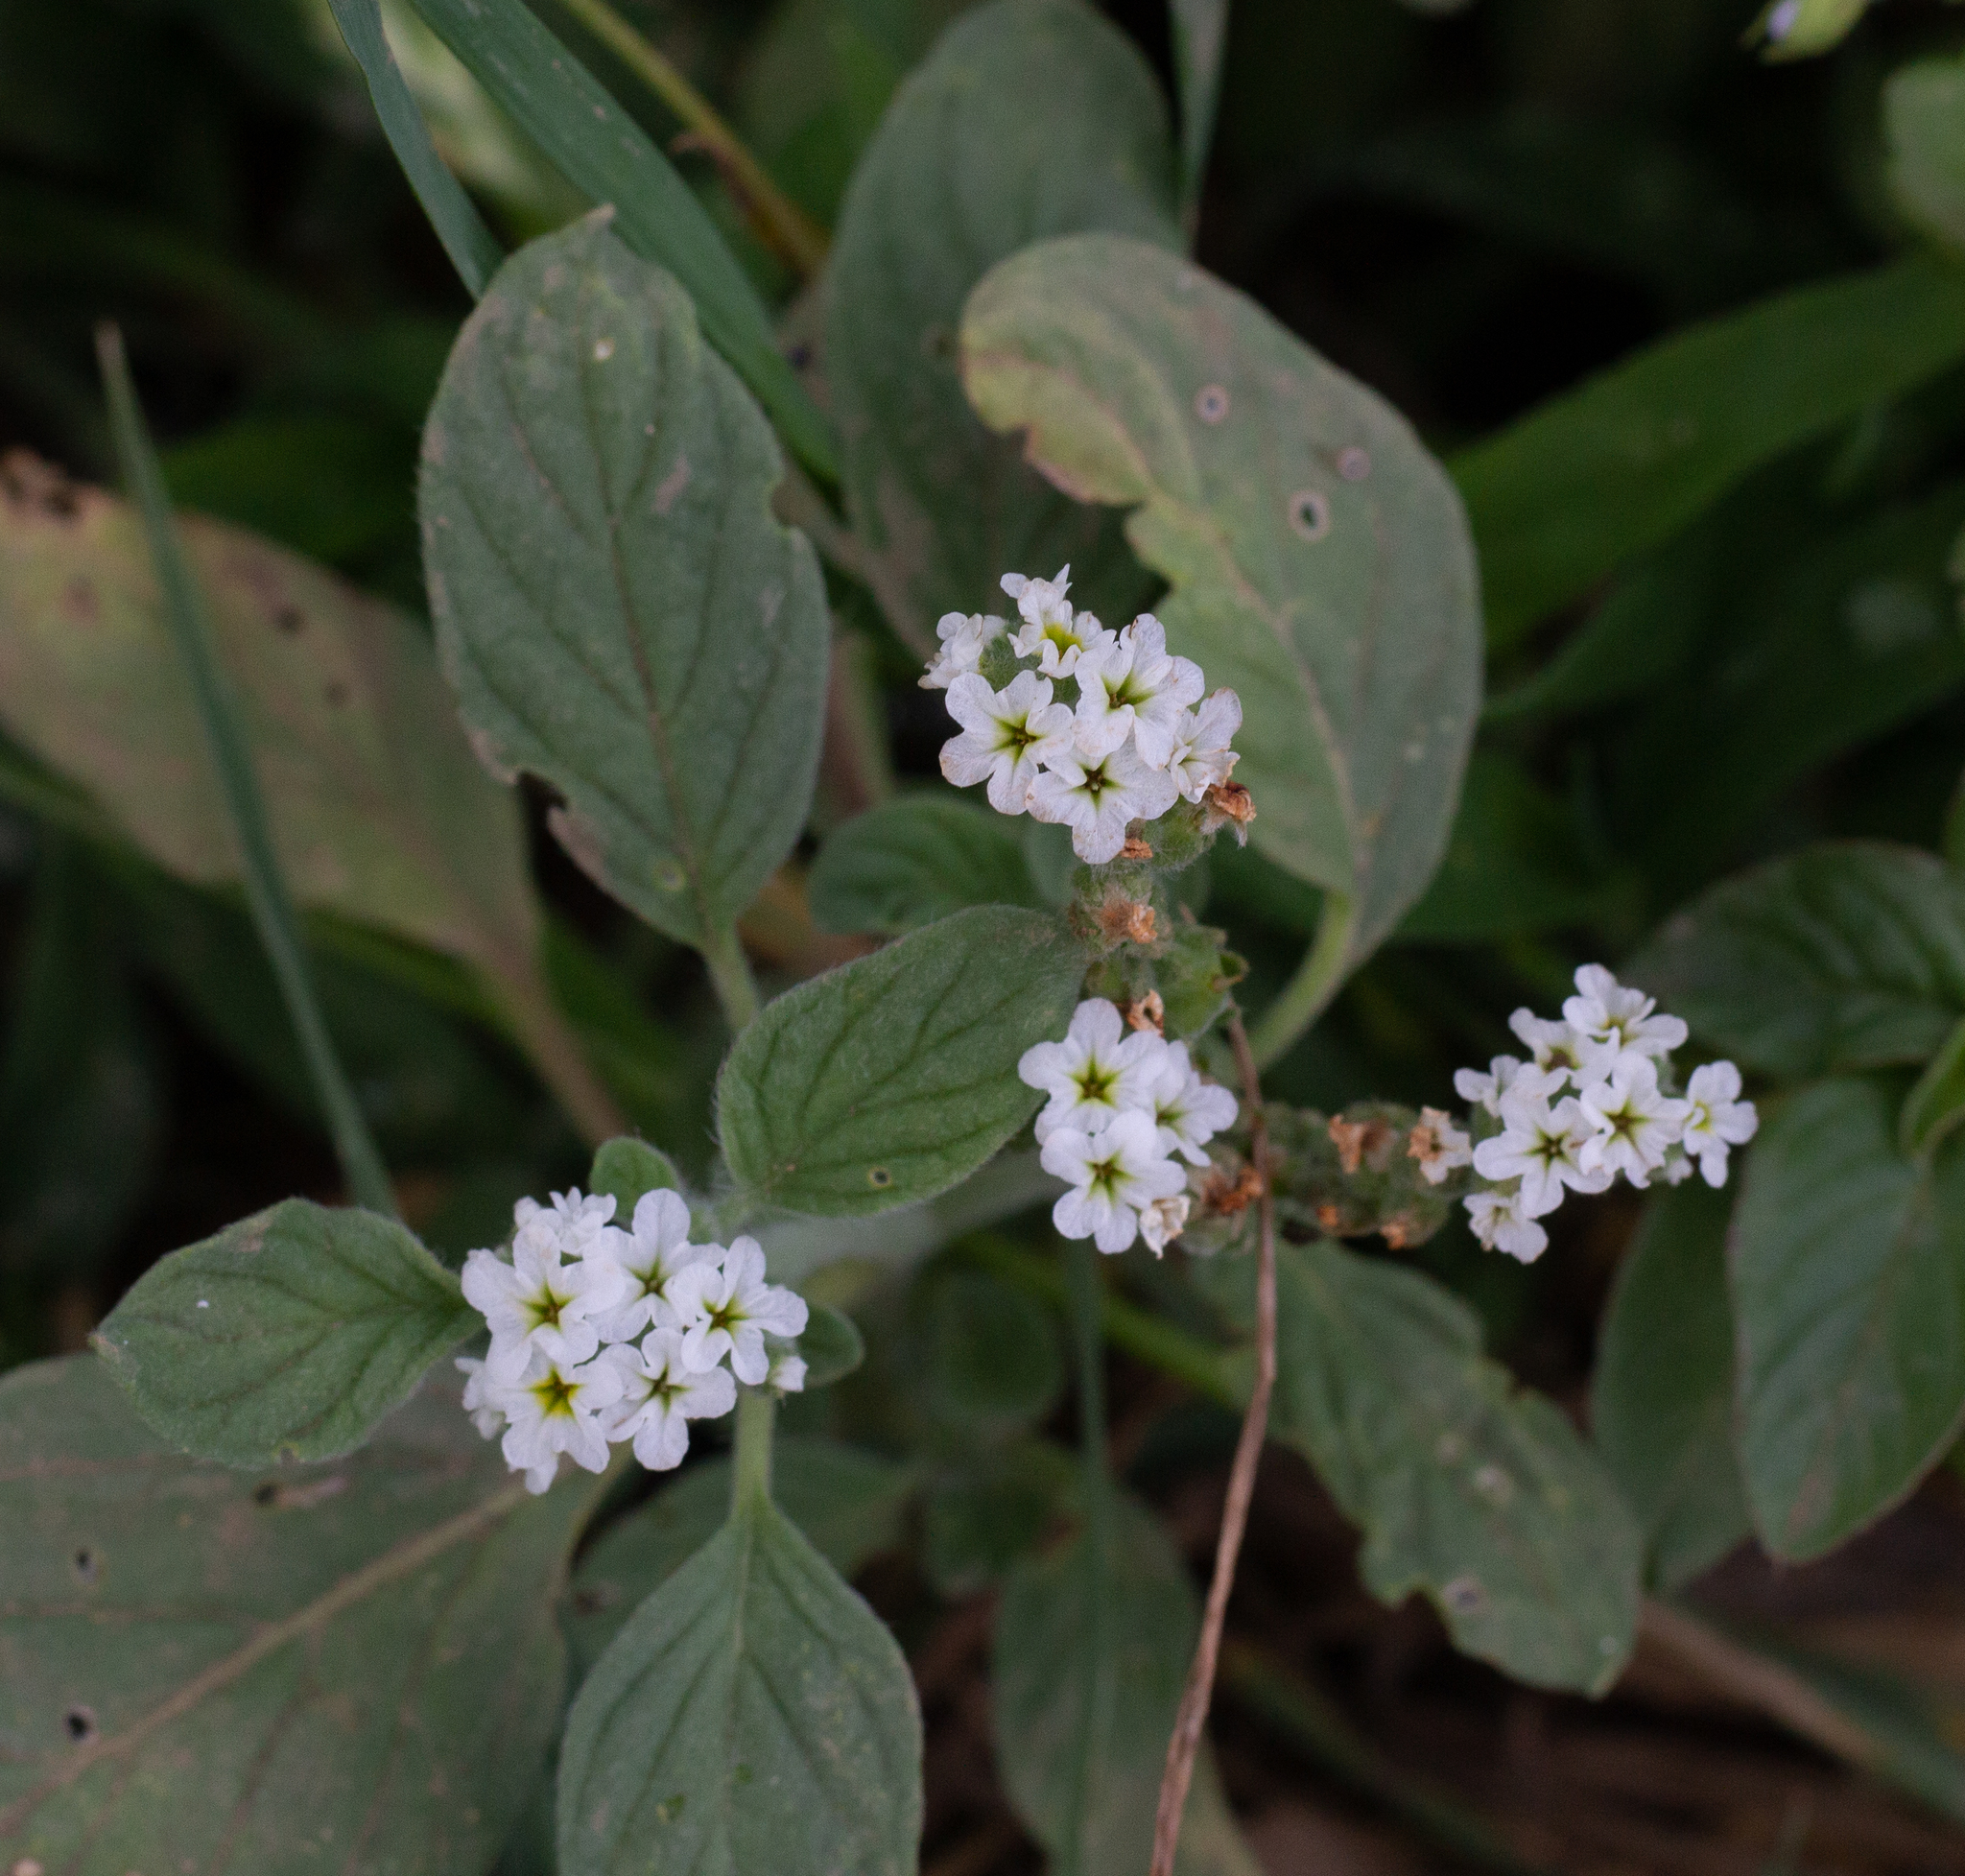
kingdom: Plantae
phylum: Tracheophyta
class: Magnoliopsida
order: Boraginales
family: Heliotropiaceae
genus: Heliotropium
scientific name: Heliotropium europaeum
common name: European heliotrope
